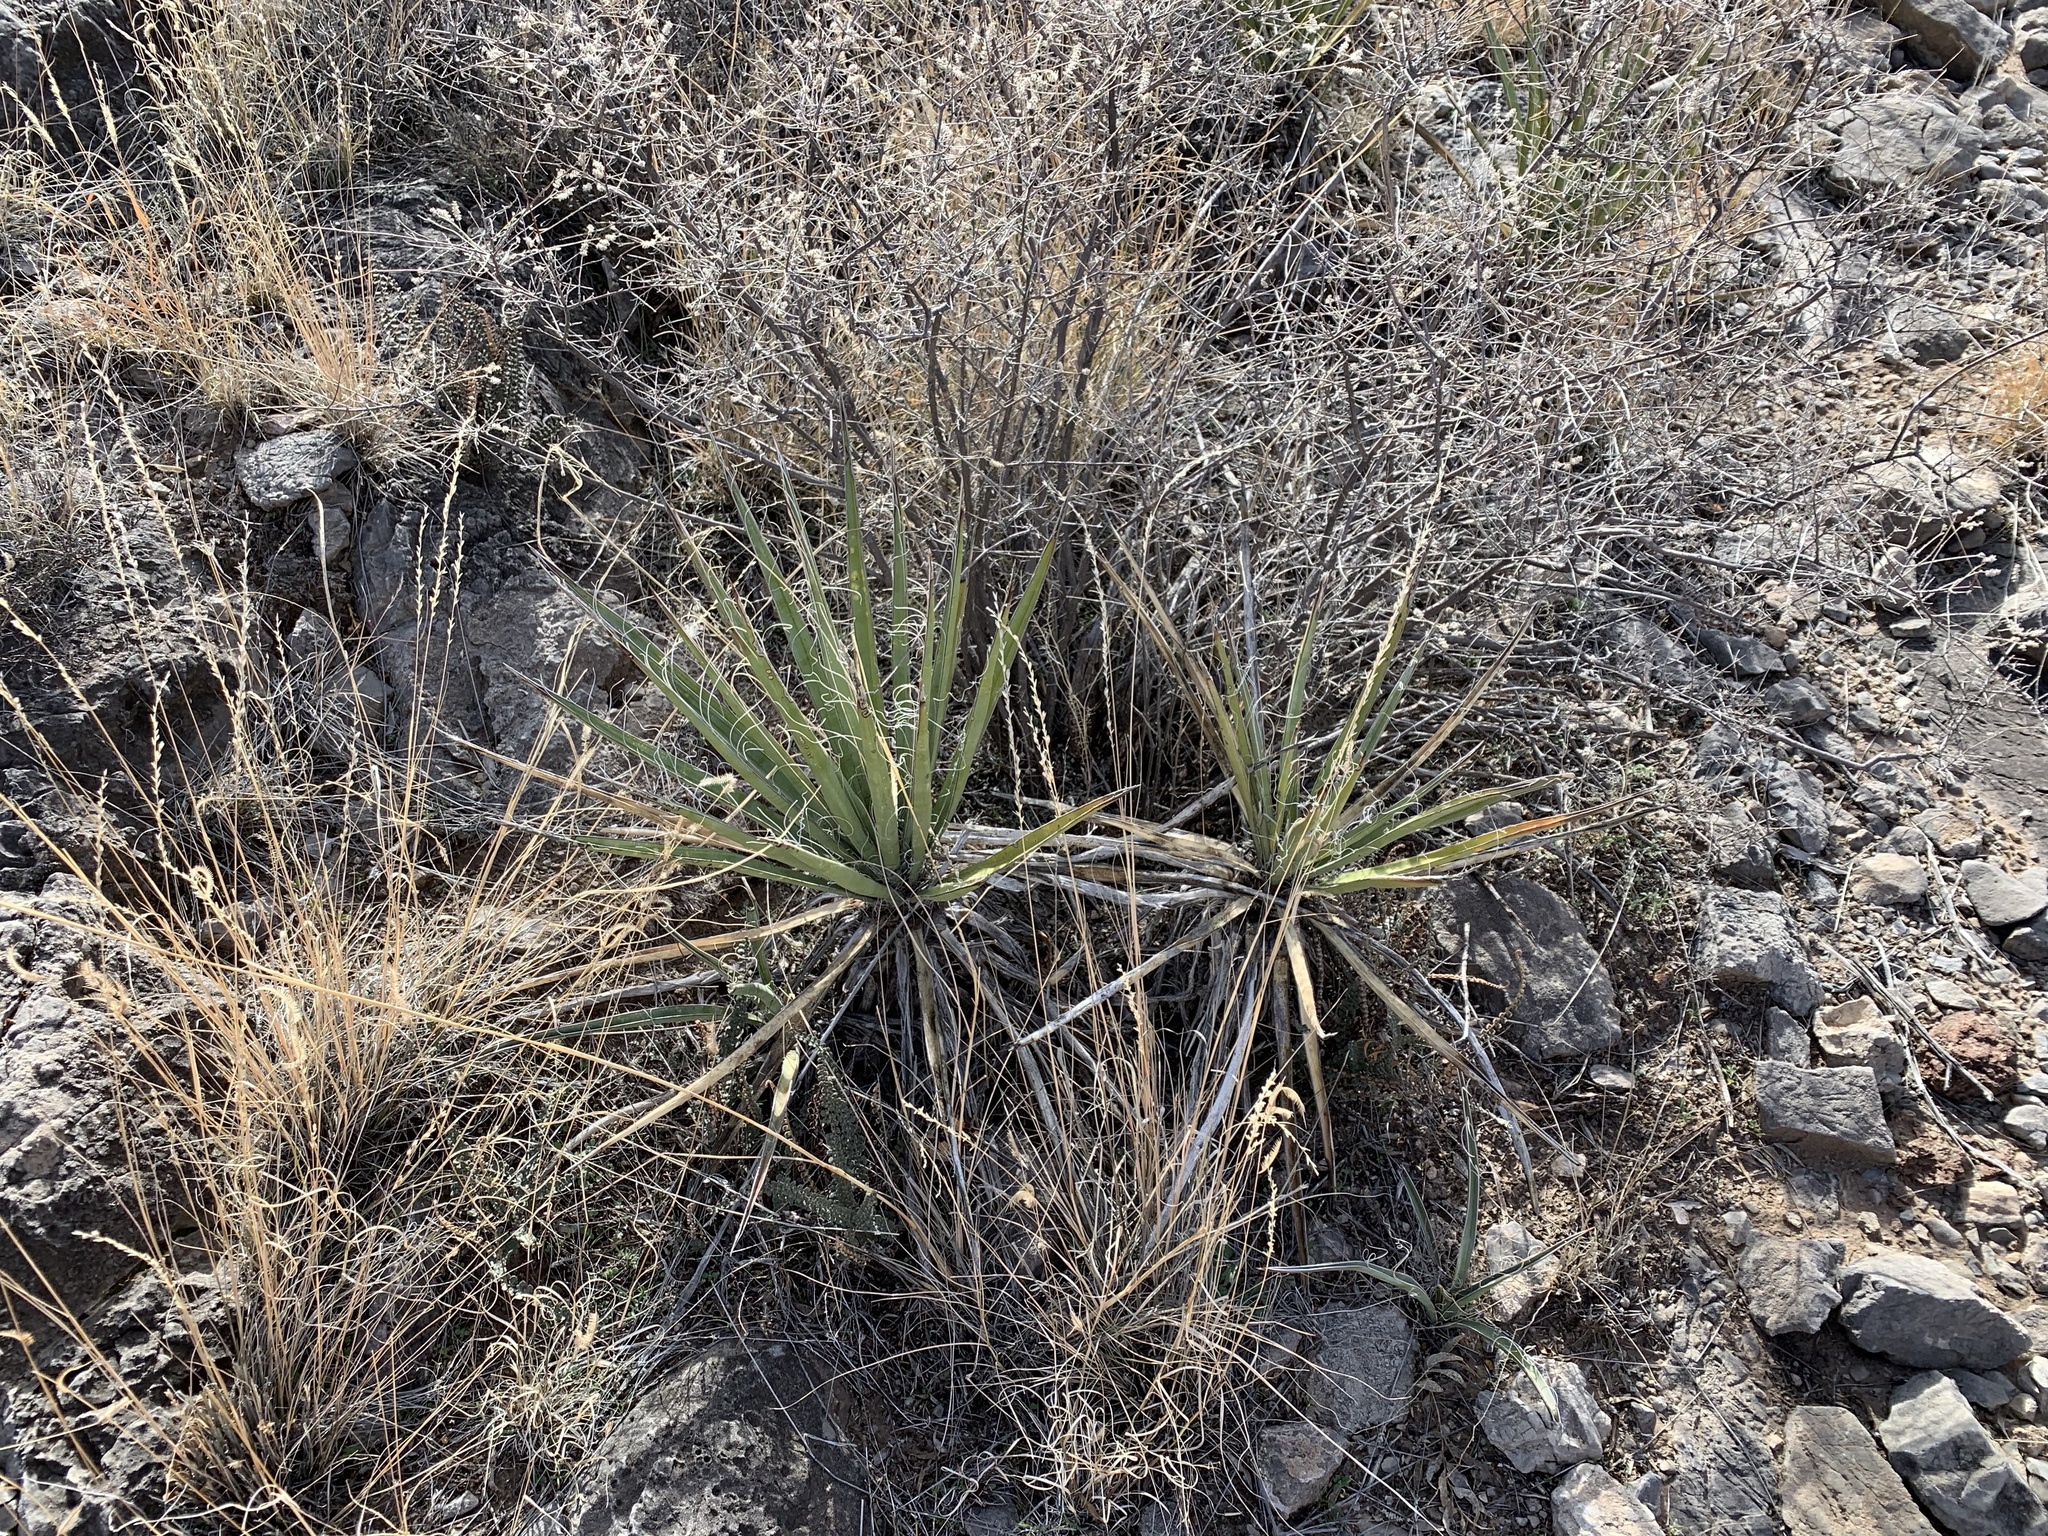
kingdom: Plantae
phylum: Tracheophyta
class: Liliopsida
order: Asparagales
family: Asparagaceae
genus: Yucca
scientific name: Yucca baccata
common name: Banana yucca
